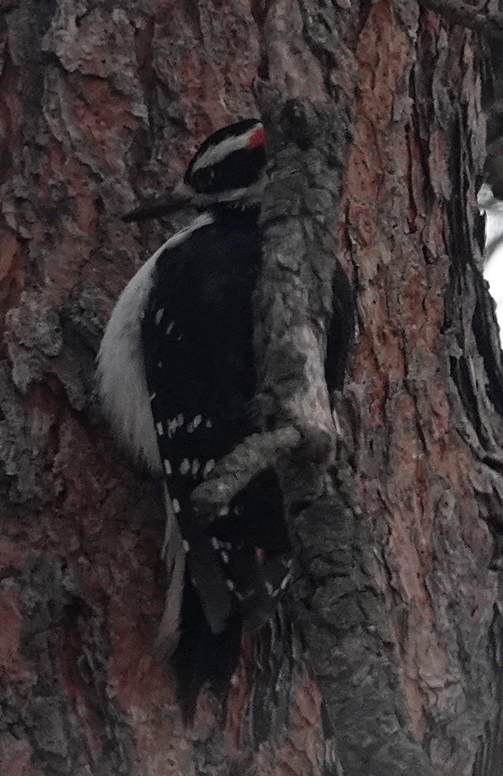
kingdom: Animalia
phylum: Chordata
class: Aves
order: Piciformes
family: Picidae
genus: Leuconotopicus
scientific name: Leuconotopicus villosus
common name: Hairy woodpecker
